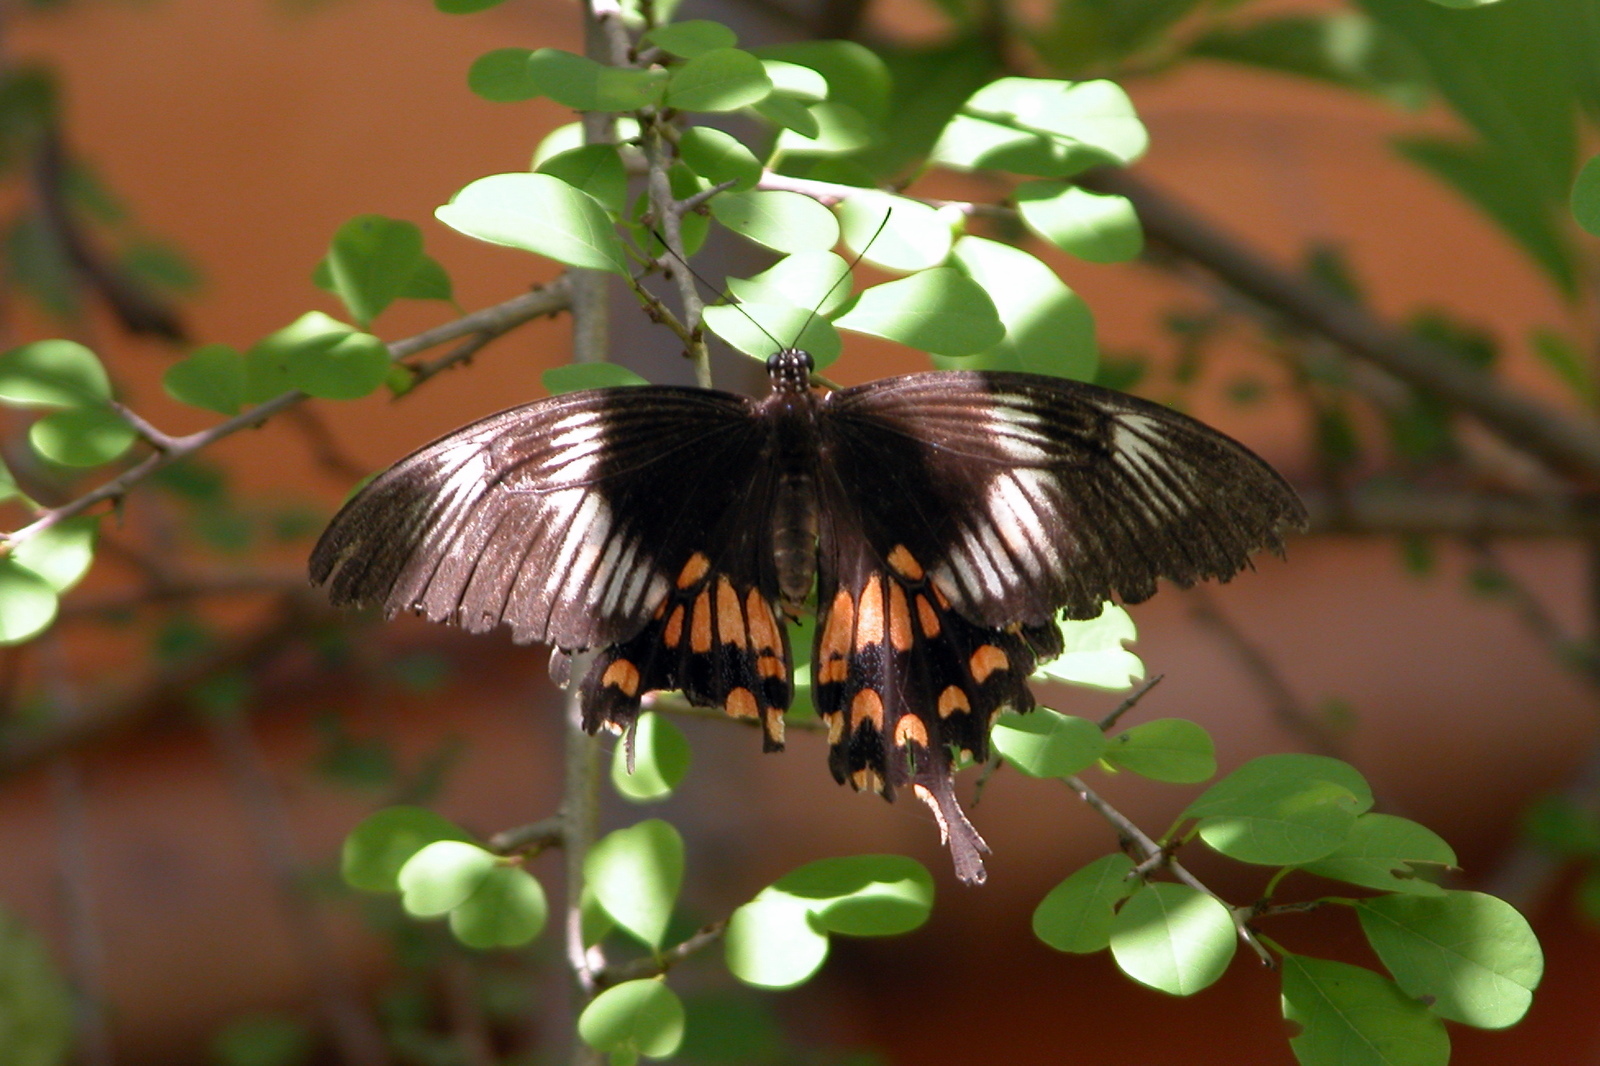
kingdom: Animalia
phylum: Arthropoda
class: Insecta
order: Lepidoptera
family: Papilionidae
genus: Papilio
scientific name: Papilio polytes
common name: Common mormon
